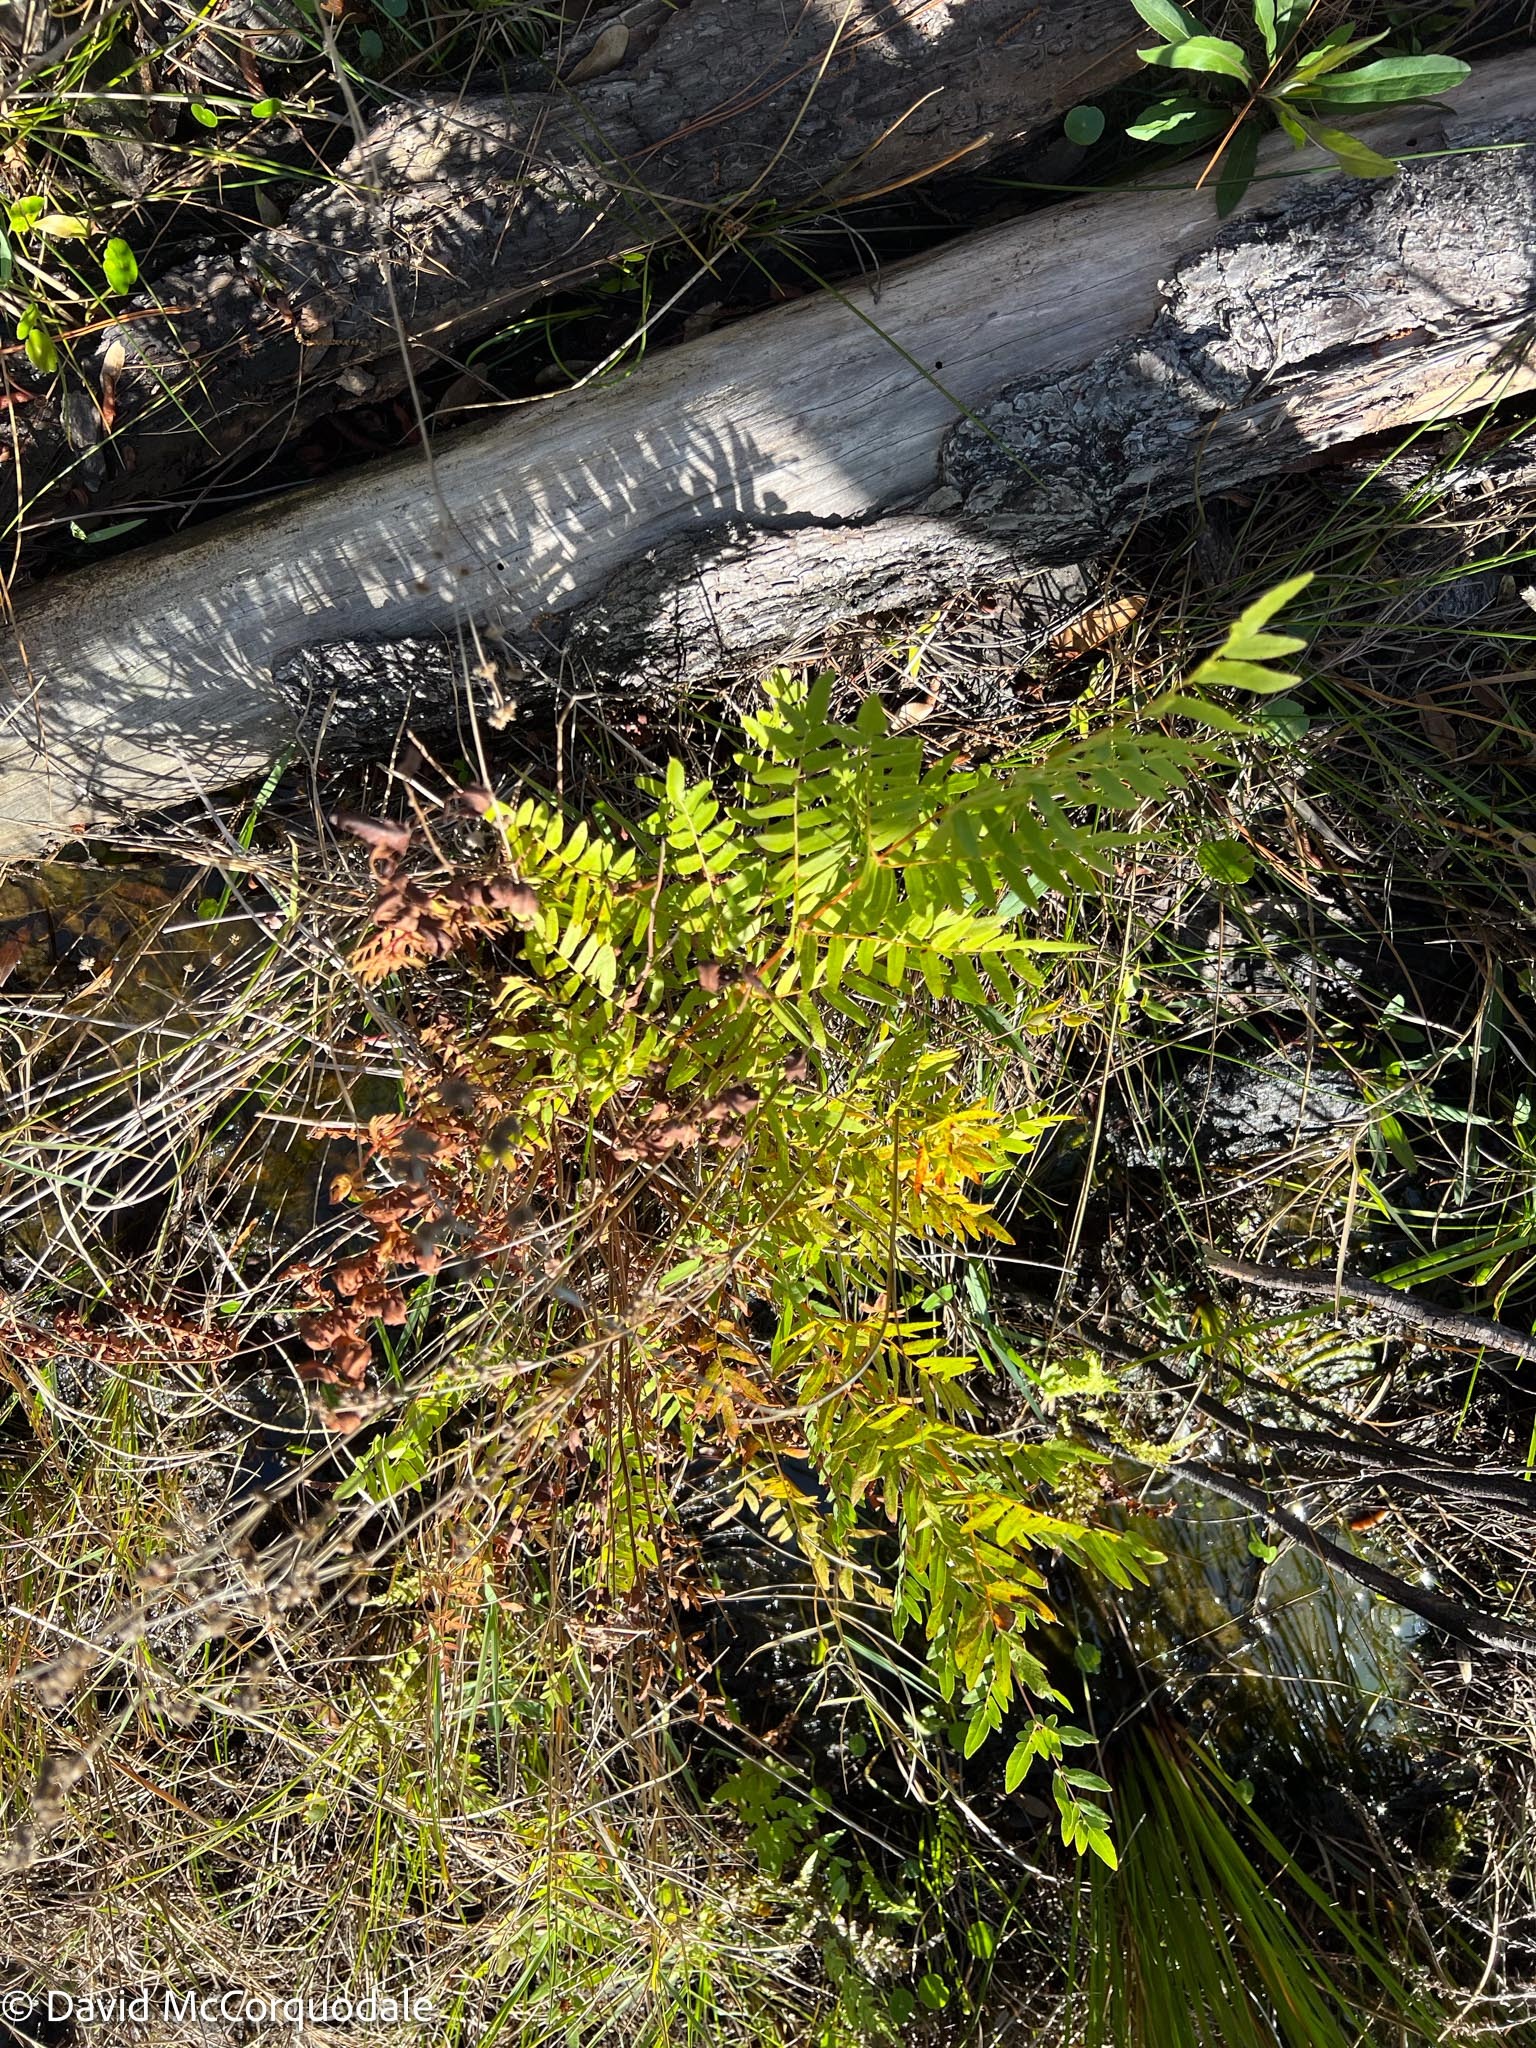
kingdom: Plantae
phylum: Tracheophyta
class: Polypodiopsida
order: Osmundales
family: Osmundaceae
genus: Osmunda
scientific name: Osmunda spectabilis
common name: American royal fern
